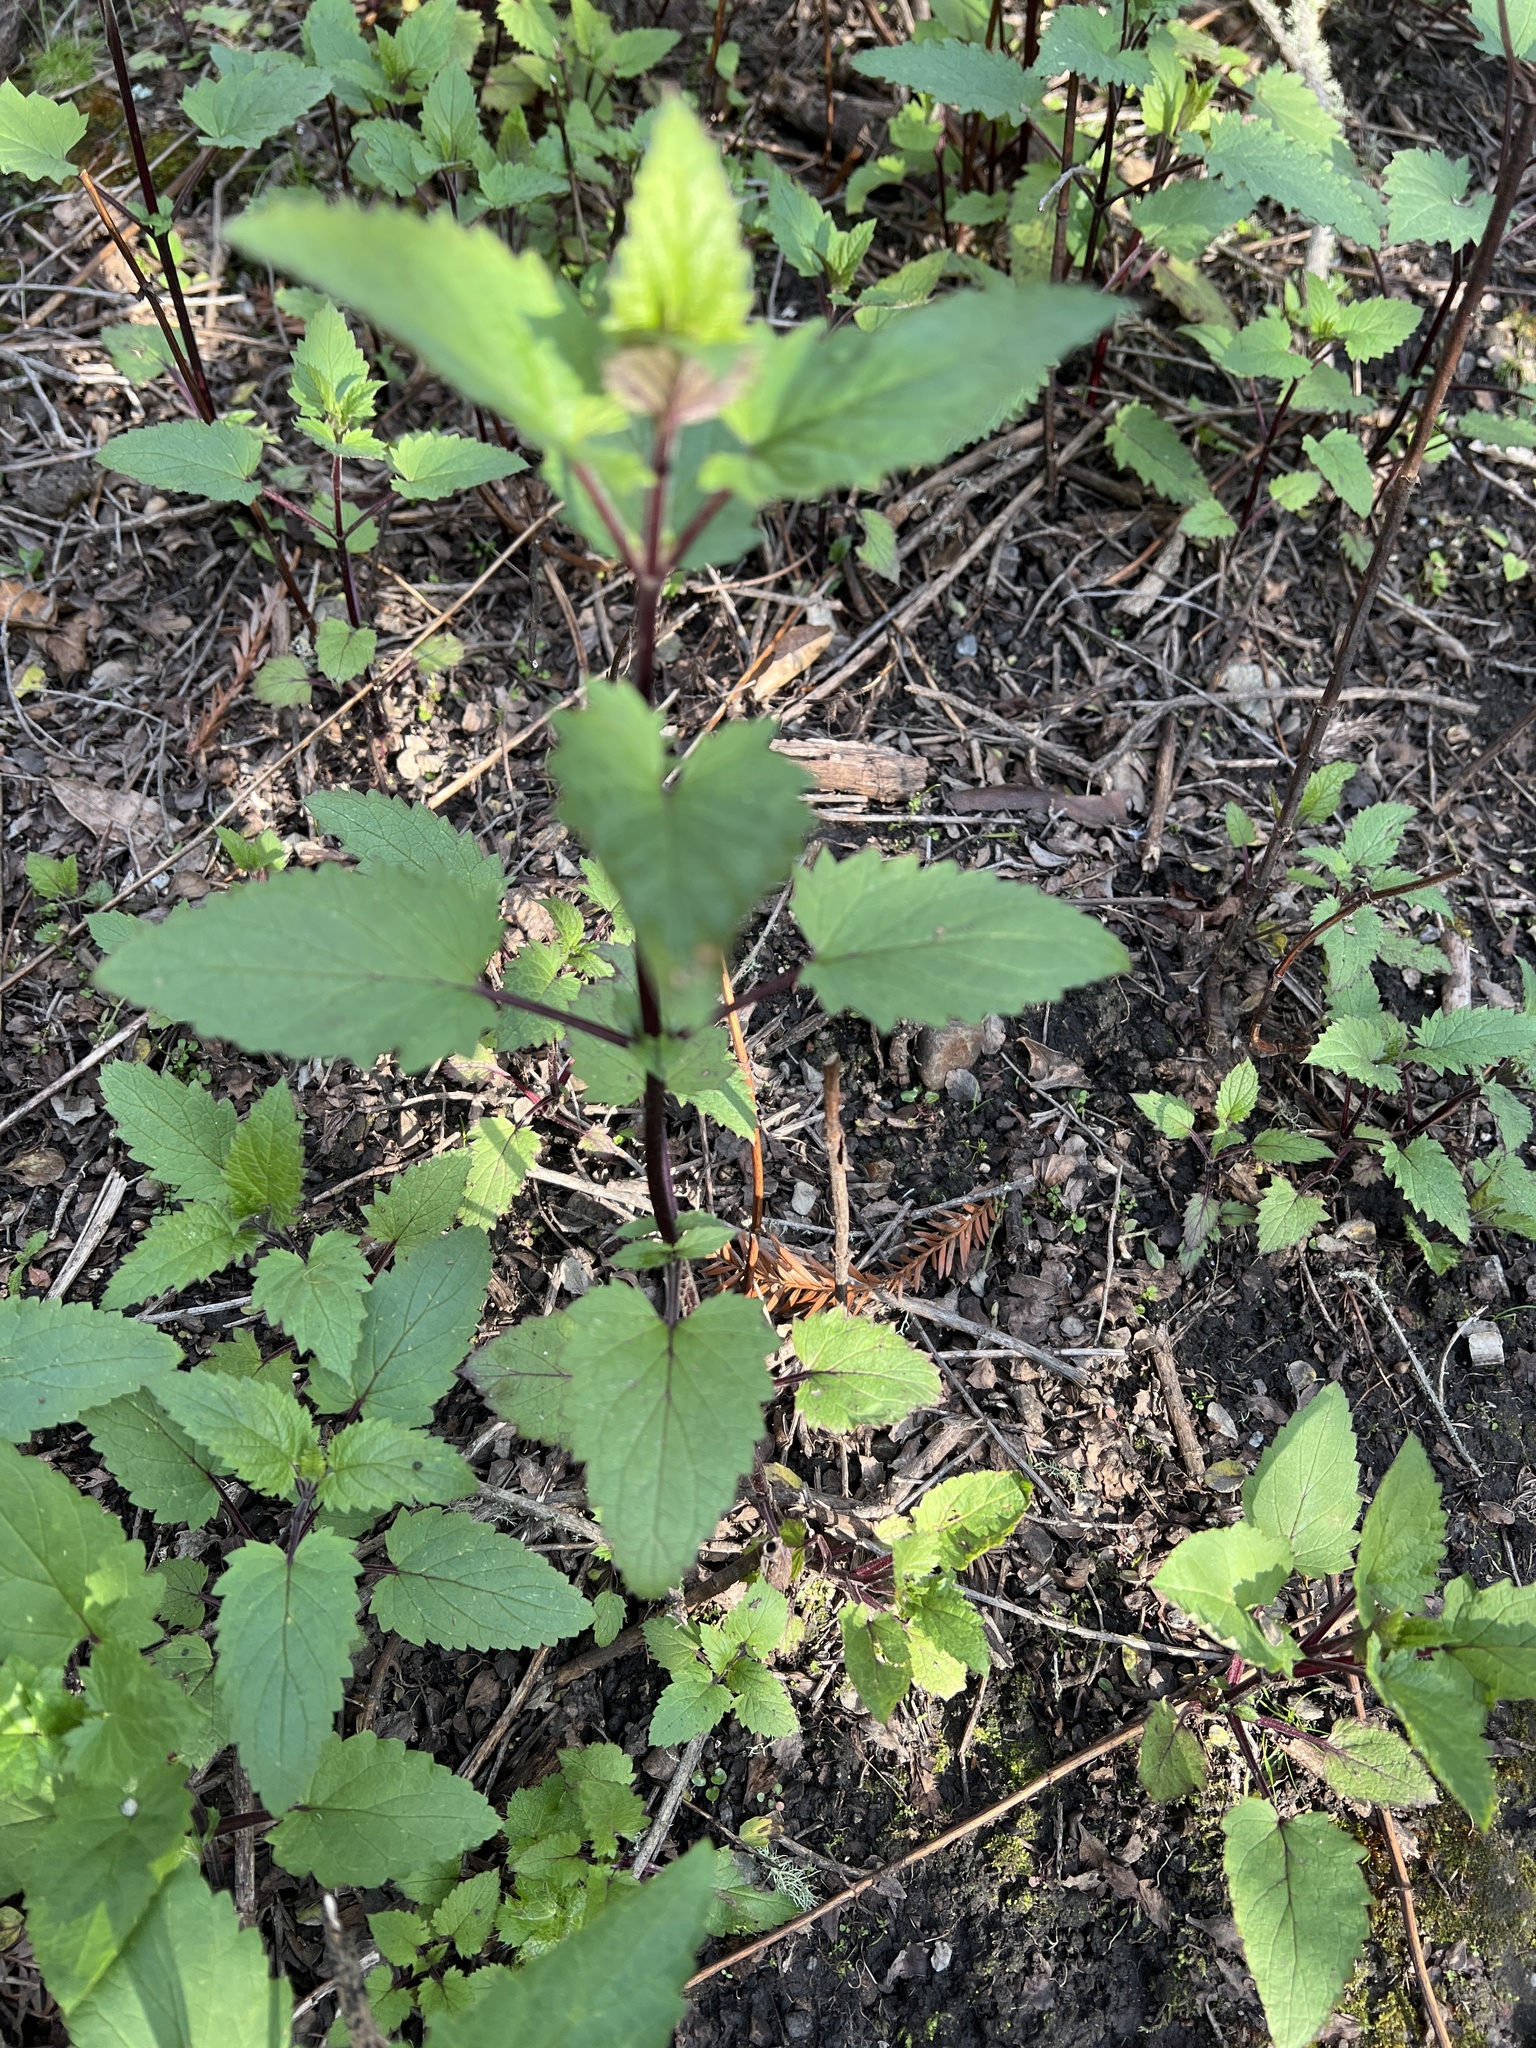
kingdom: Plantae
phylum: Tracheophyta
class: Magnoliopsida
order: Lamiales
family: Scrophulariaceae
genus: Scrophularia
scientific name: Scrophularia californica
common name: California figwort
